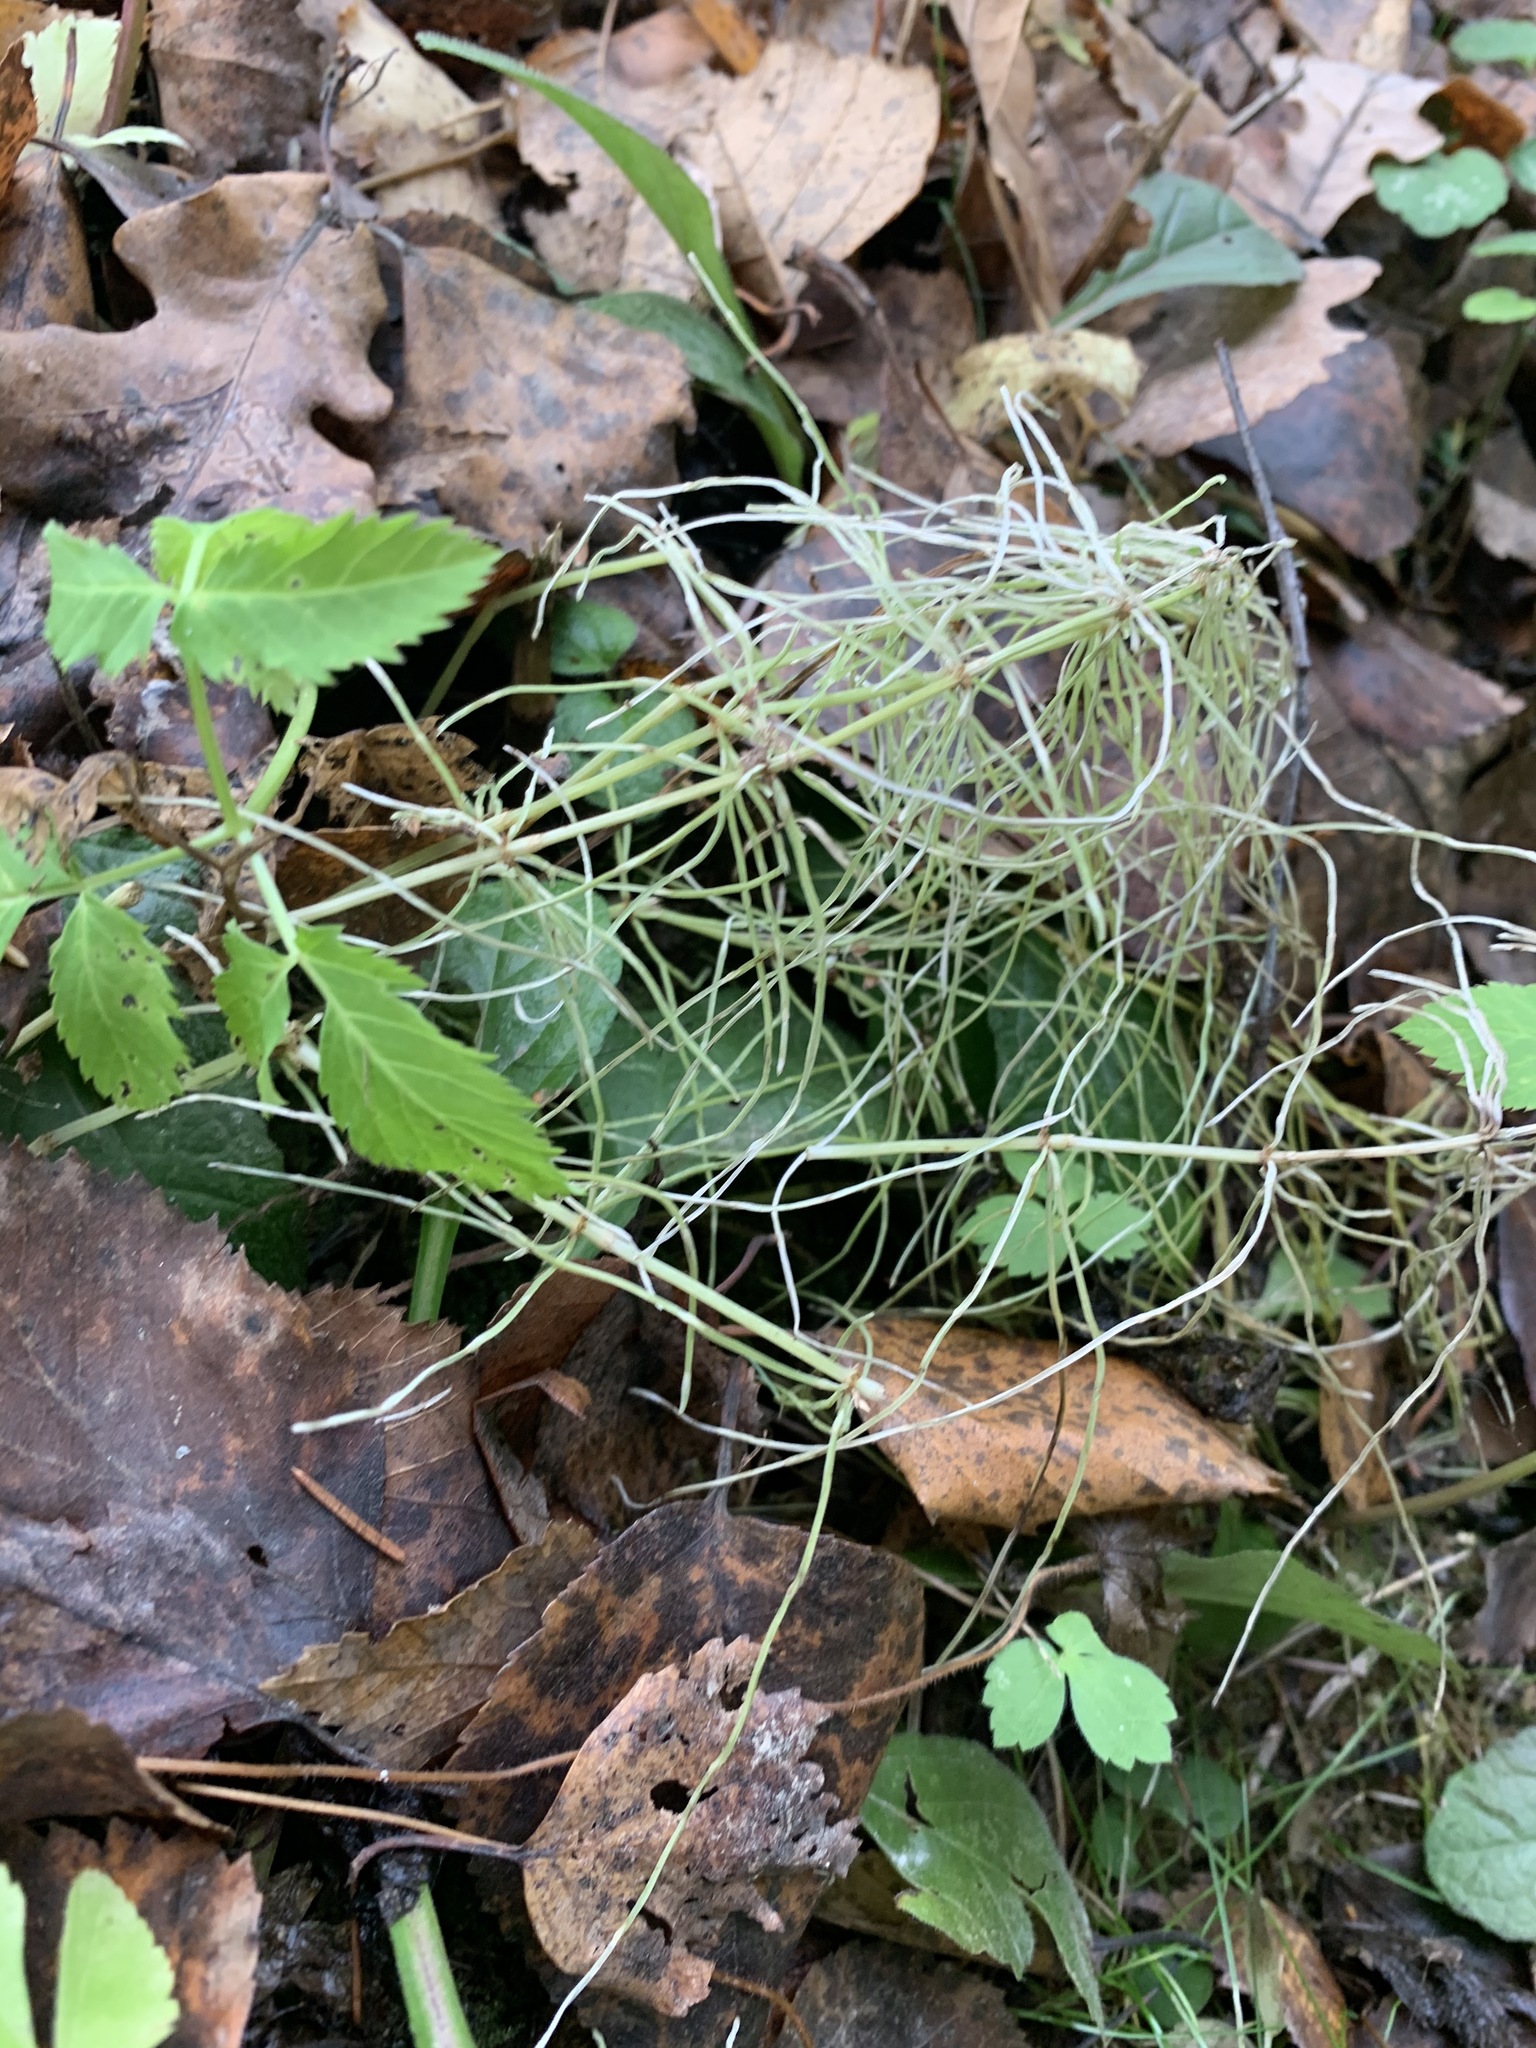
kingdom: Plantae
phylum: Tracheophyta
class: Polypodiopsida
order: Equisetales
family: Equisetaceae
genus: Equisetum
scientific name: Equisetum pratense
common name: Meadow horsetail
